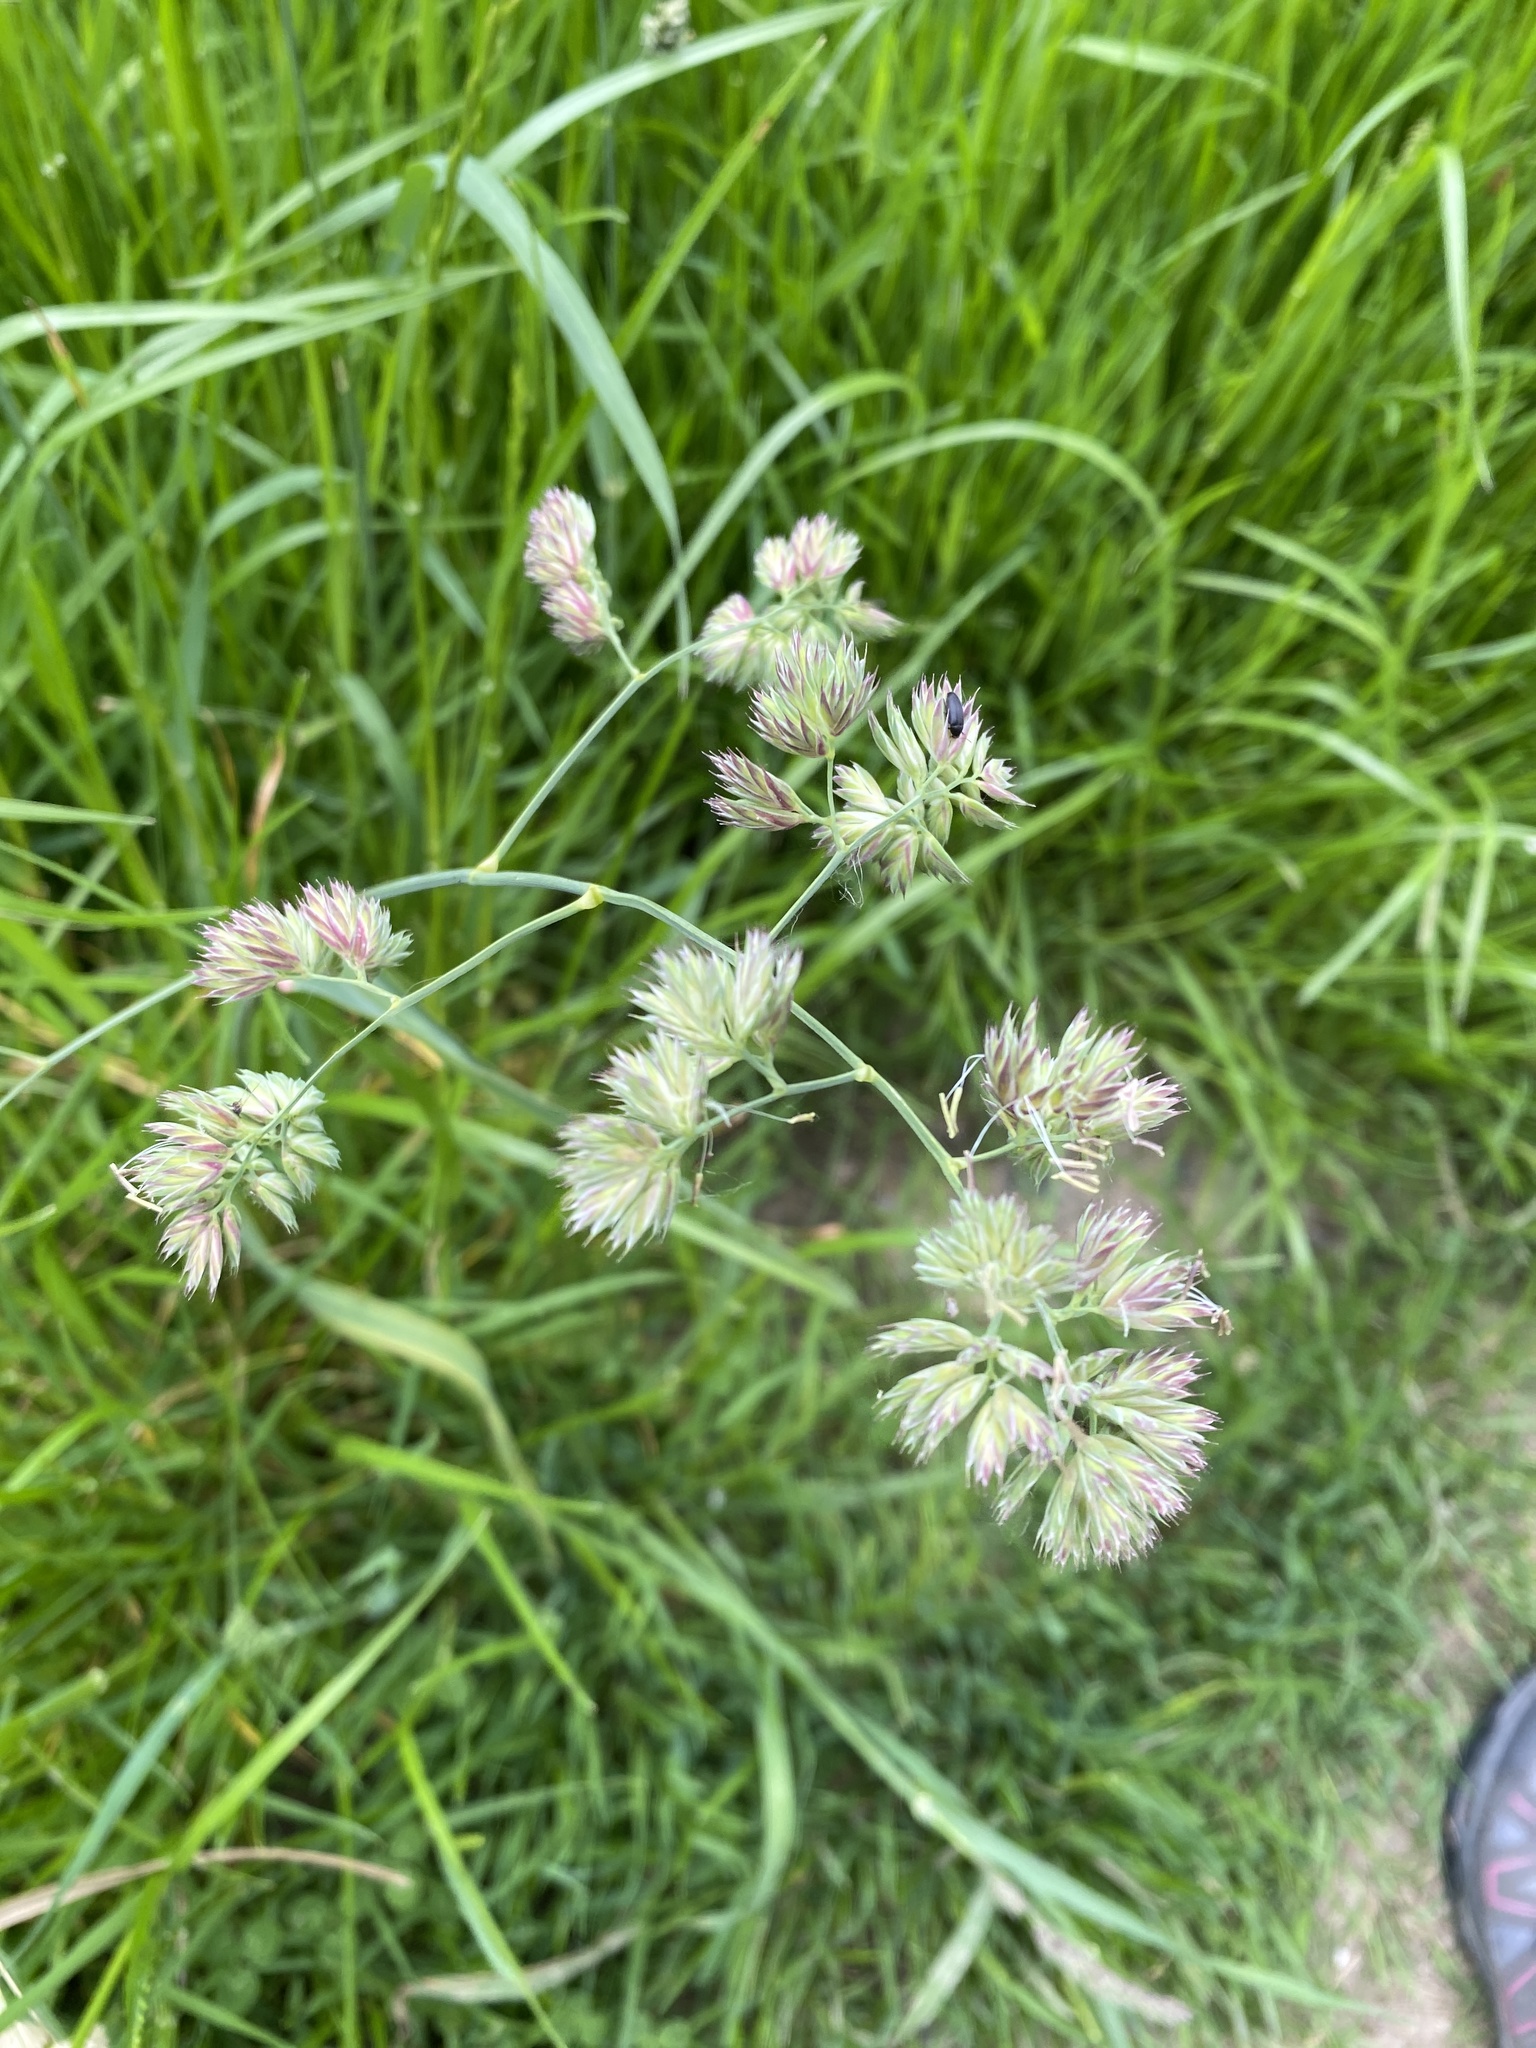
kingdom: Plantae
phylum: Tracheophyta
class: Liliopsida
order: Poales
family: Poaceae
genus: Dactylis
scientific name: Dactylis glomerata
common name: Orchardgrass
